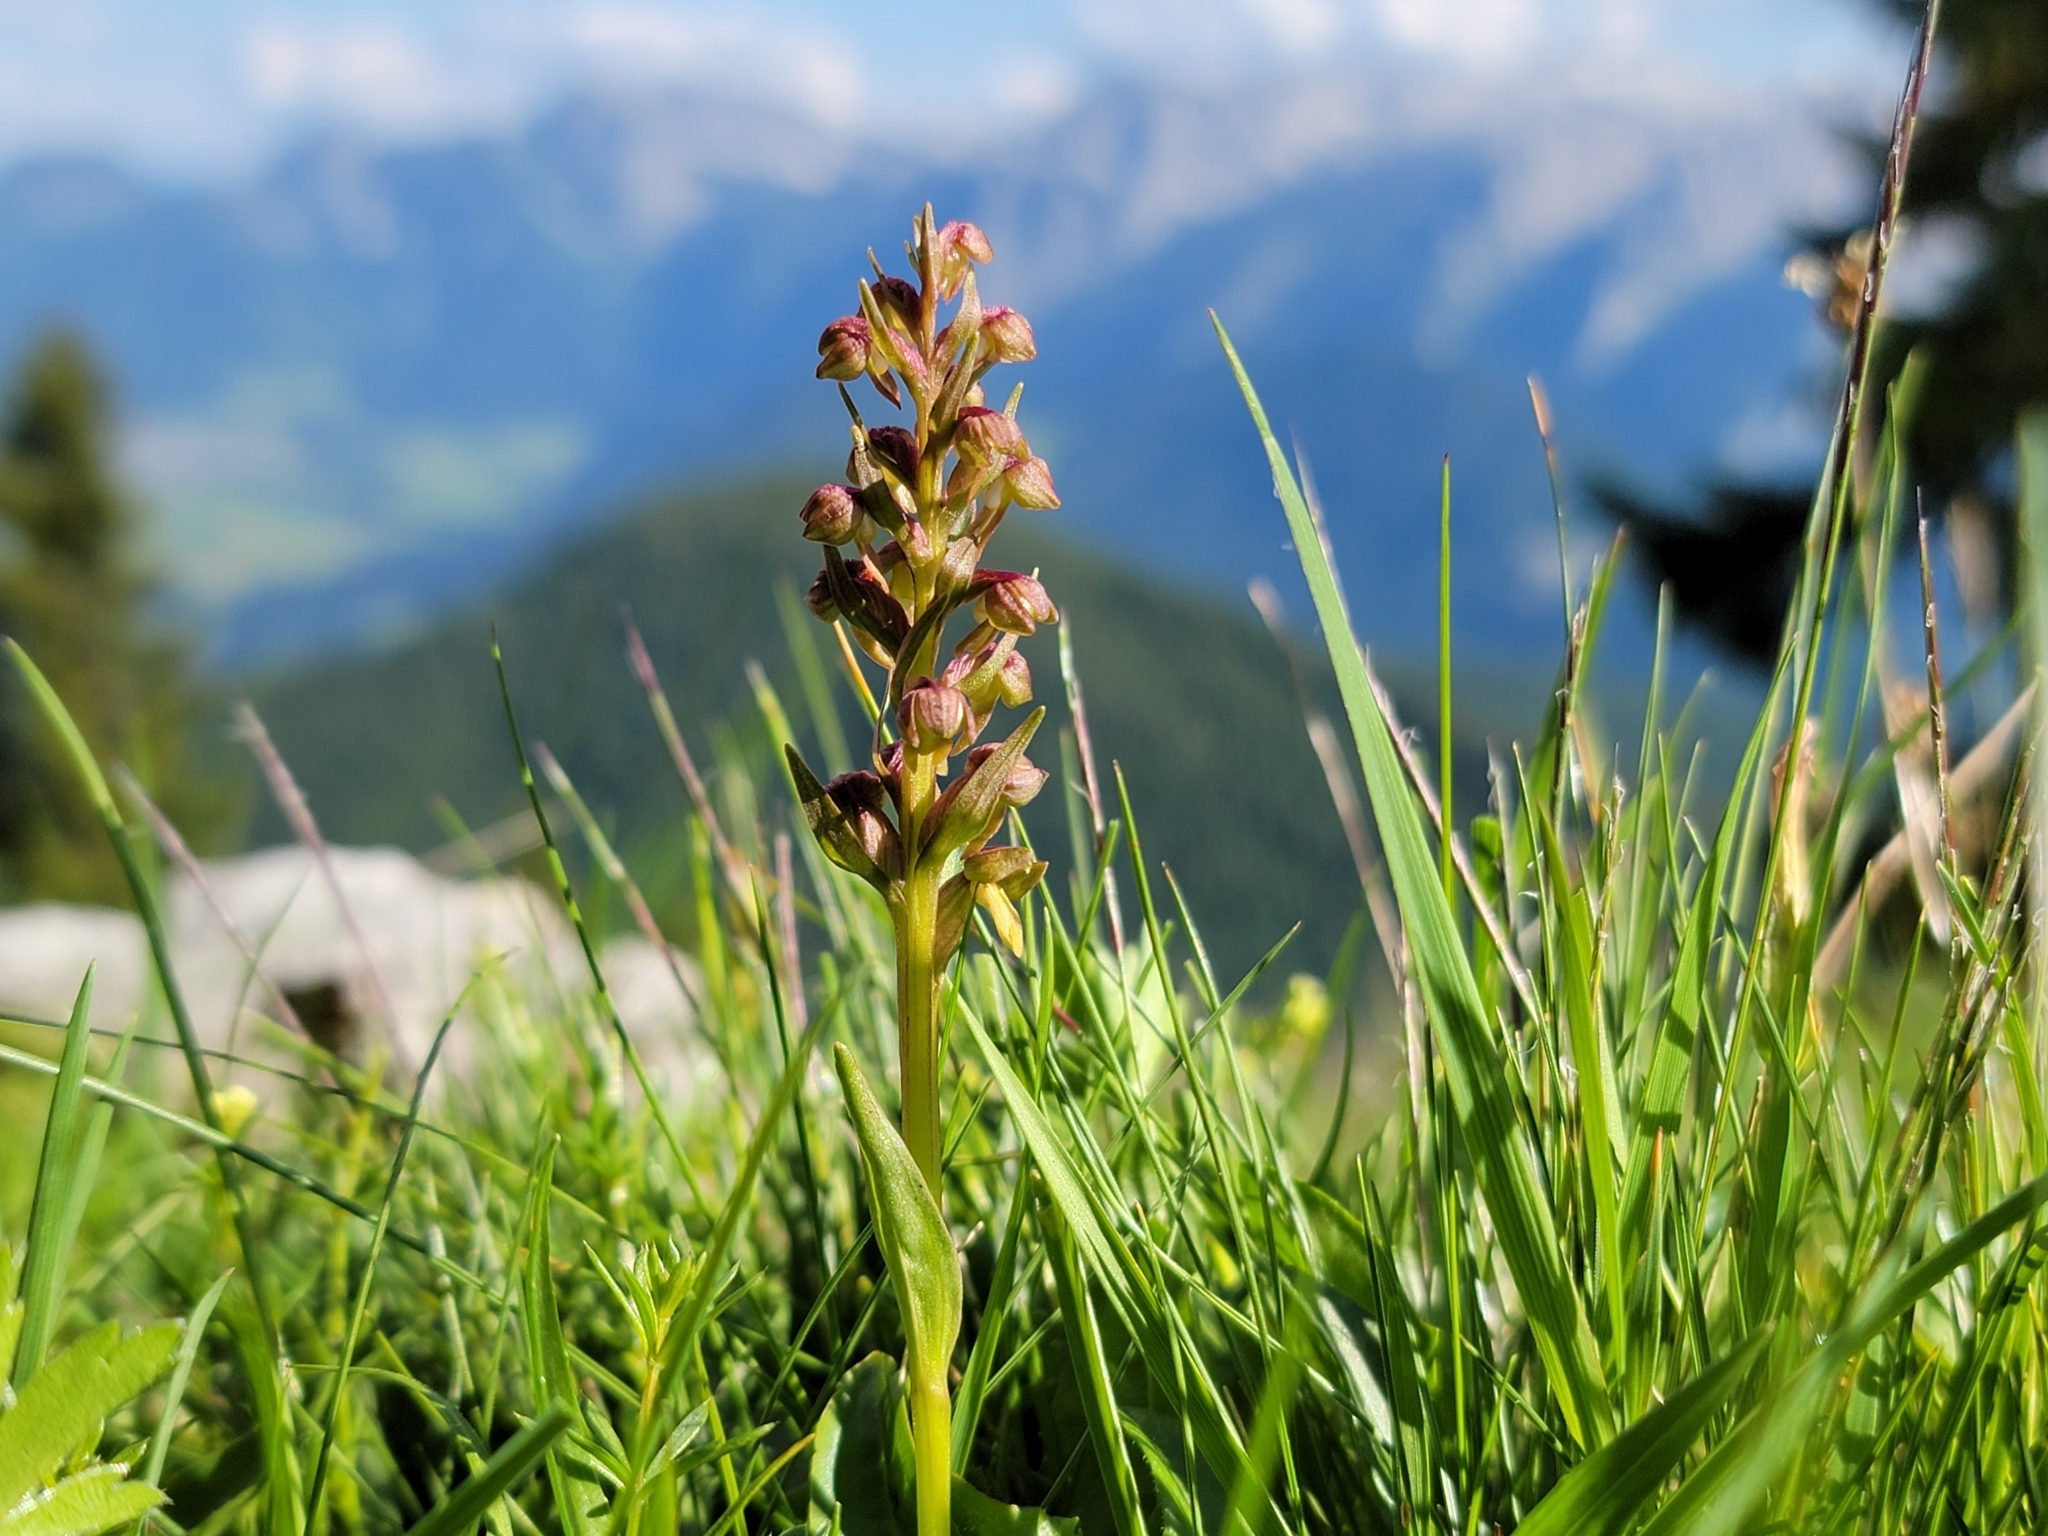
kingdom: Plantae
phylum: Tracheophyta
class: Liliopsida
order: Asparagales
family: Orchidaceae
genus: Dactylorhiza
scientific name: Dactylorhiza viridis
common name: Longbract frog orchid
